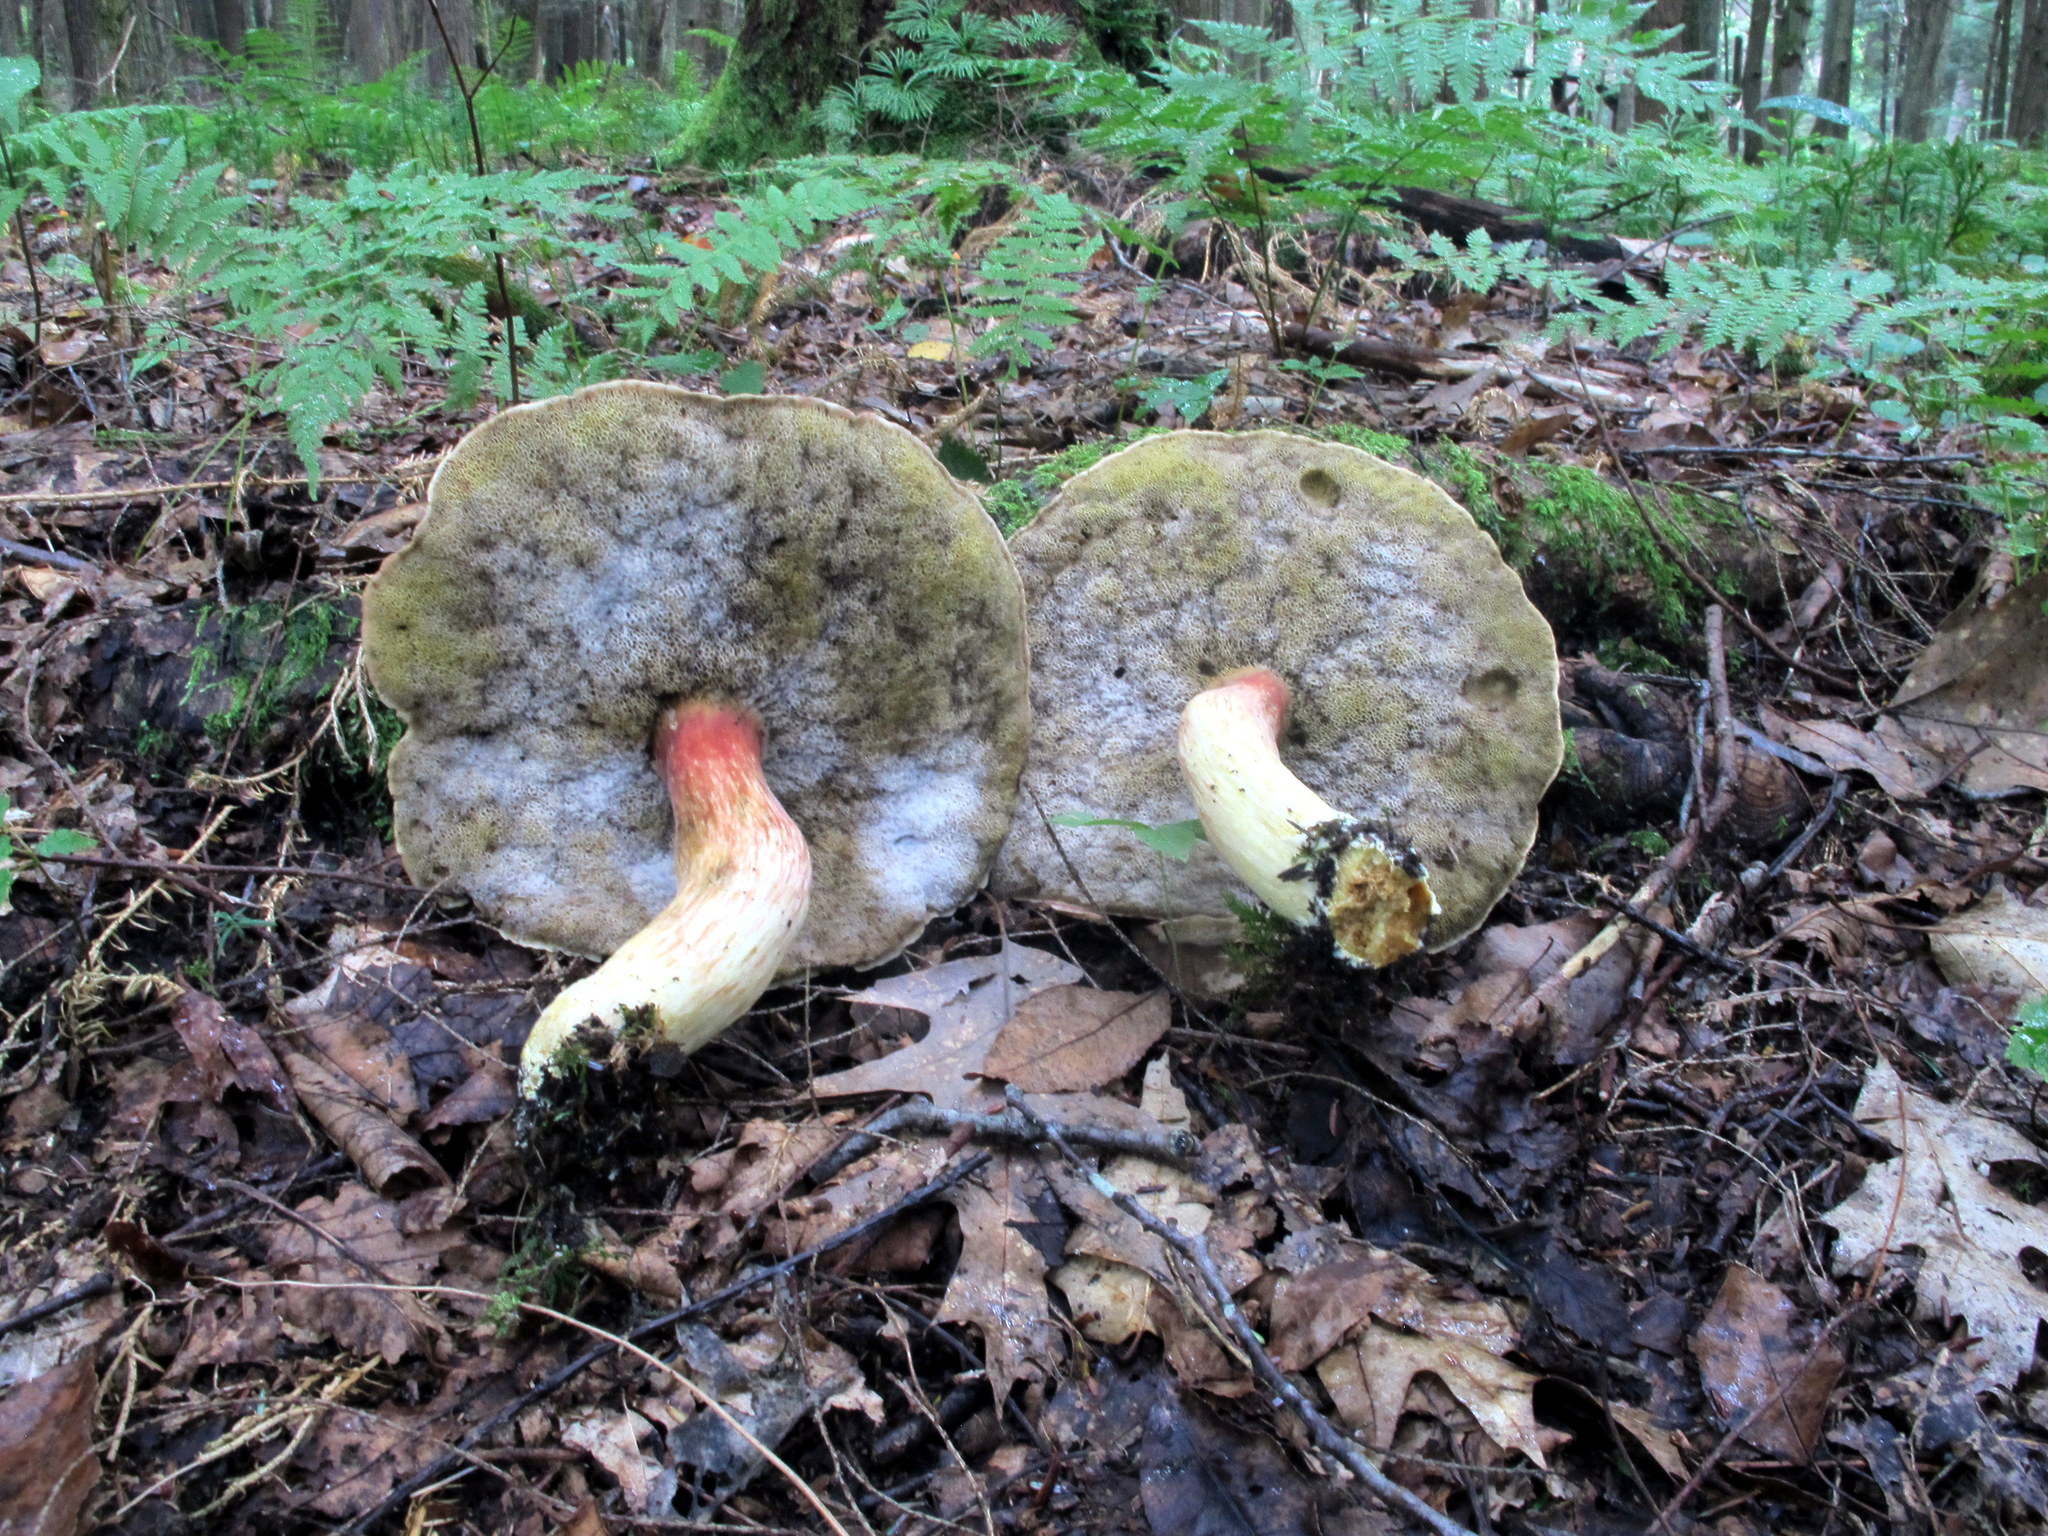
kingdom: Fungi
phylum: Basidiomycota
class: Agaricomycetes
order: Boletales
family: Boletaceae
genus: Boletus
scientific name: Boletus
